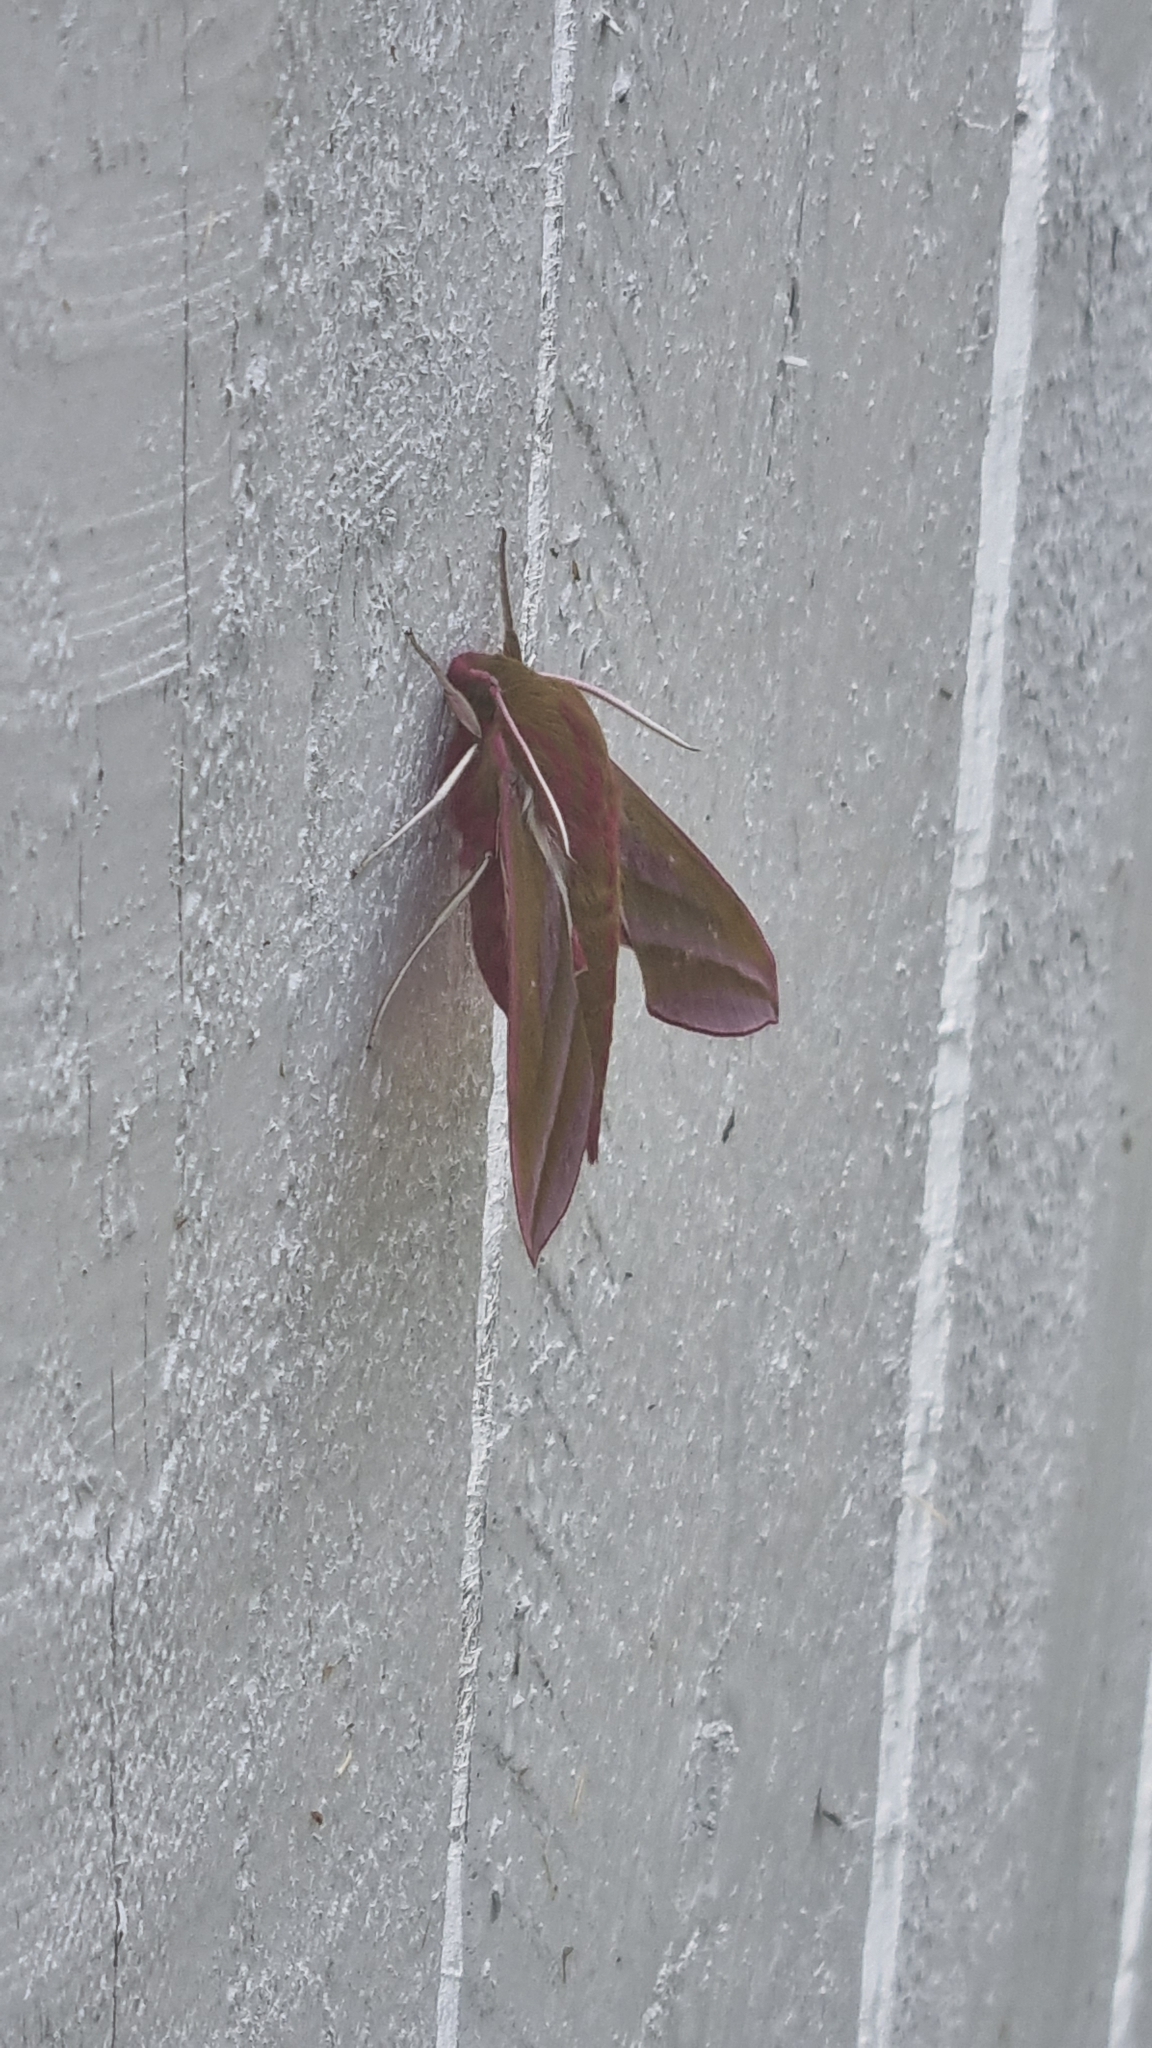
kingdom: Animalia
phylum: Arthropoda
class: Insecta
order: Lepidoptera
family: Sphingidae
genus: Deilephila
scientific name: Deilephila elpenor
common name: Elephant hawk-moth
